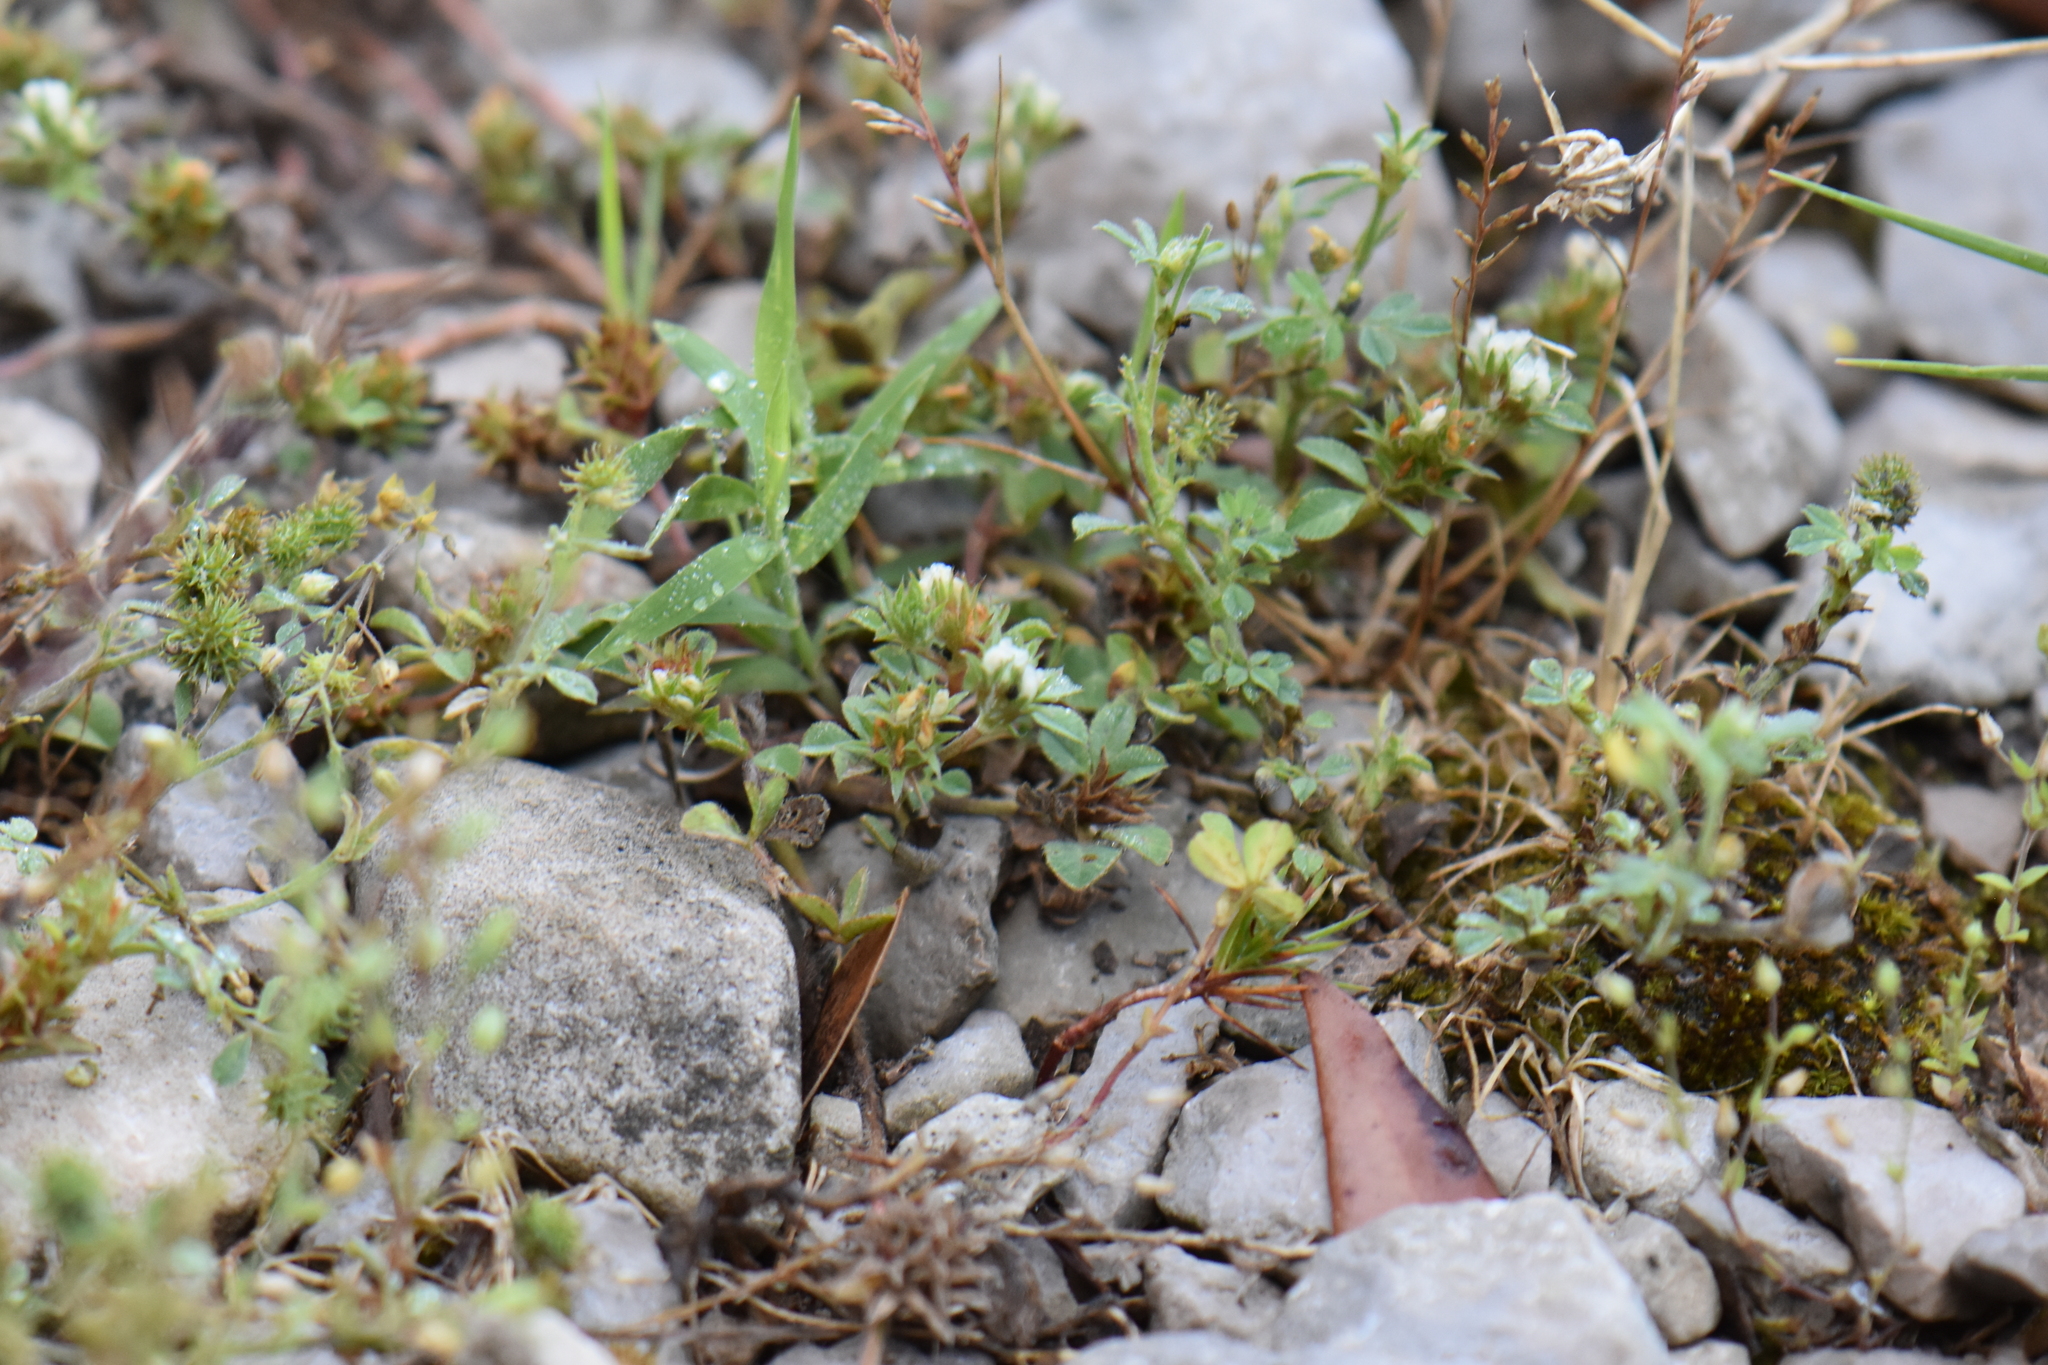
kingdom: Plantae
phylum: Tracheophyta
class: Magnoliopsida
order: Fabales
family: Fabaceae
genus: Trifolium
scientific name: Trifolium scabrum
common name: Rough clover
